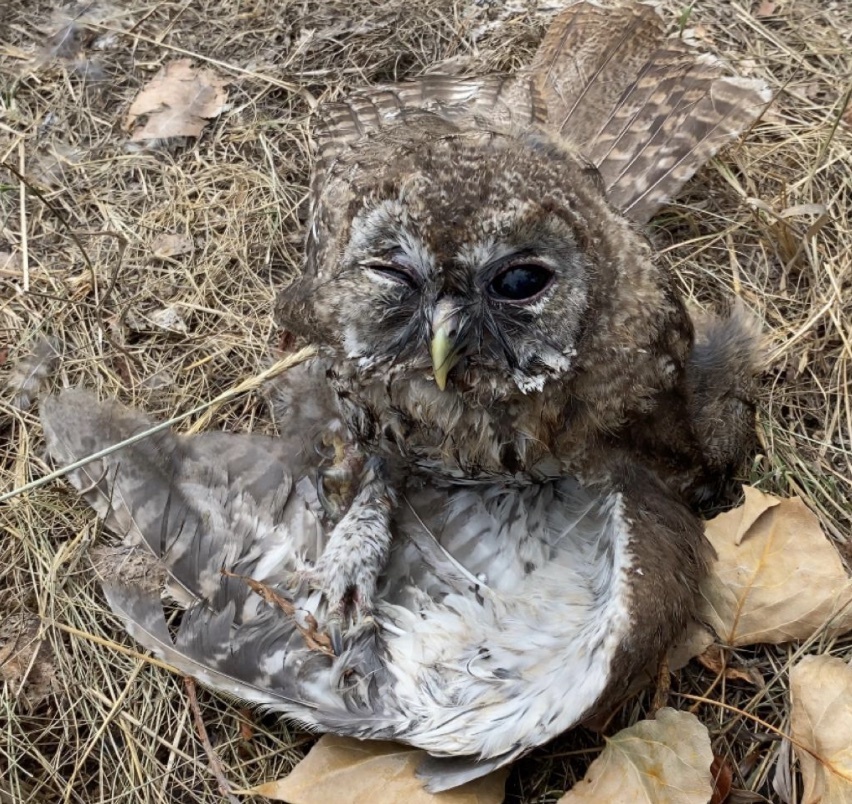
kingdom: Animalia
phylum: Chordata
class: Aves
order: Strigiformes
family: Strigidae
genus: Strix
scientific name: Strix aluco
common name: Tawny owl
